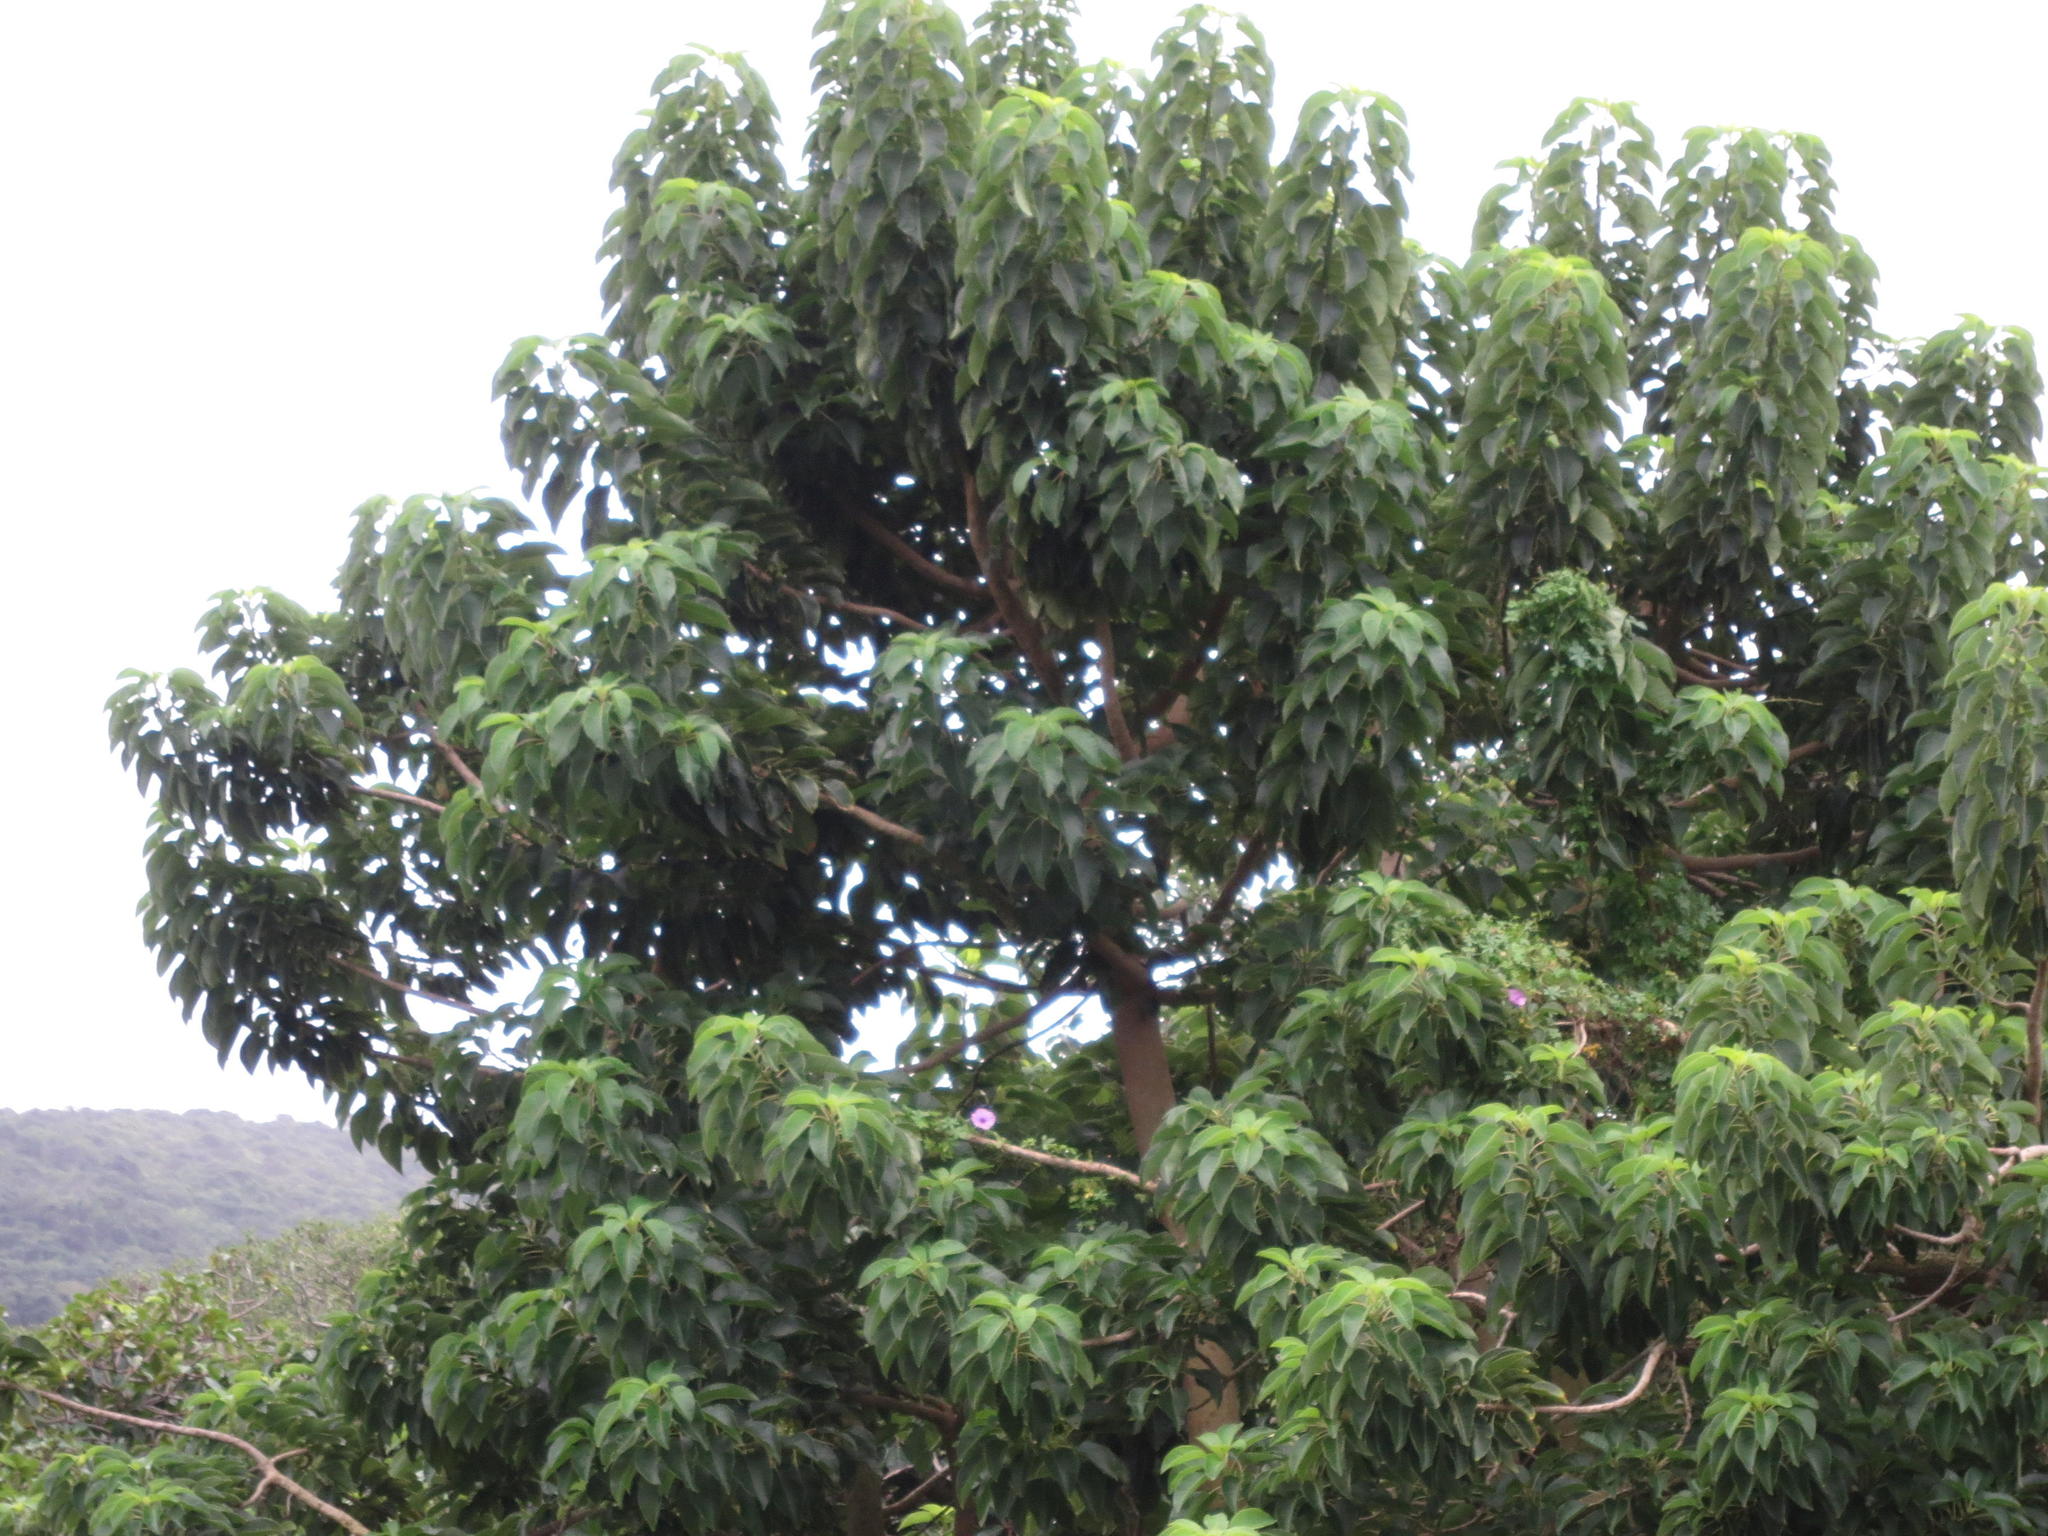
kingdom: Plantae
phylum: Tracheophyta
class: Magnoliopsida
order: Caryophyllales
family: Phytolaccaceae
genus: Phytolacca
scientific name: Phytolacca dioica
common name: Pokeweed
